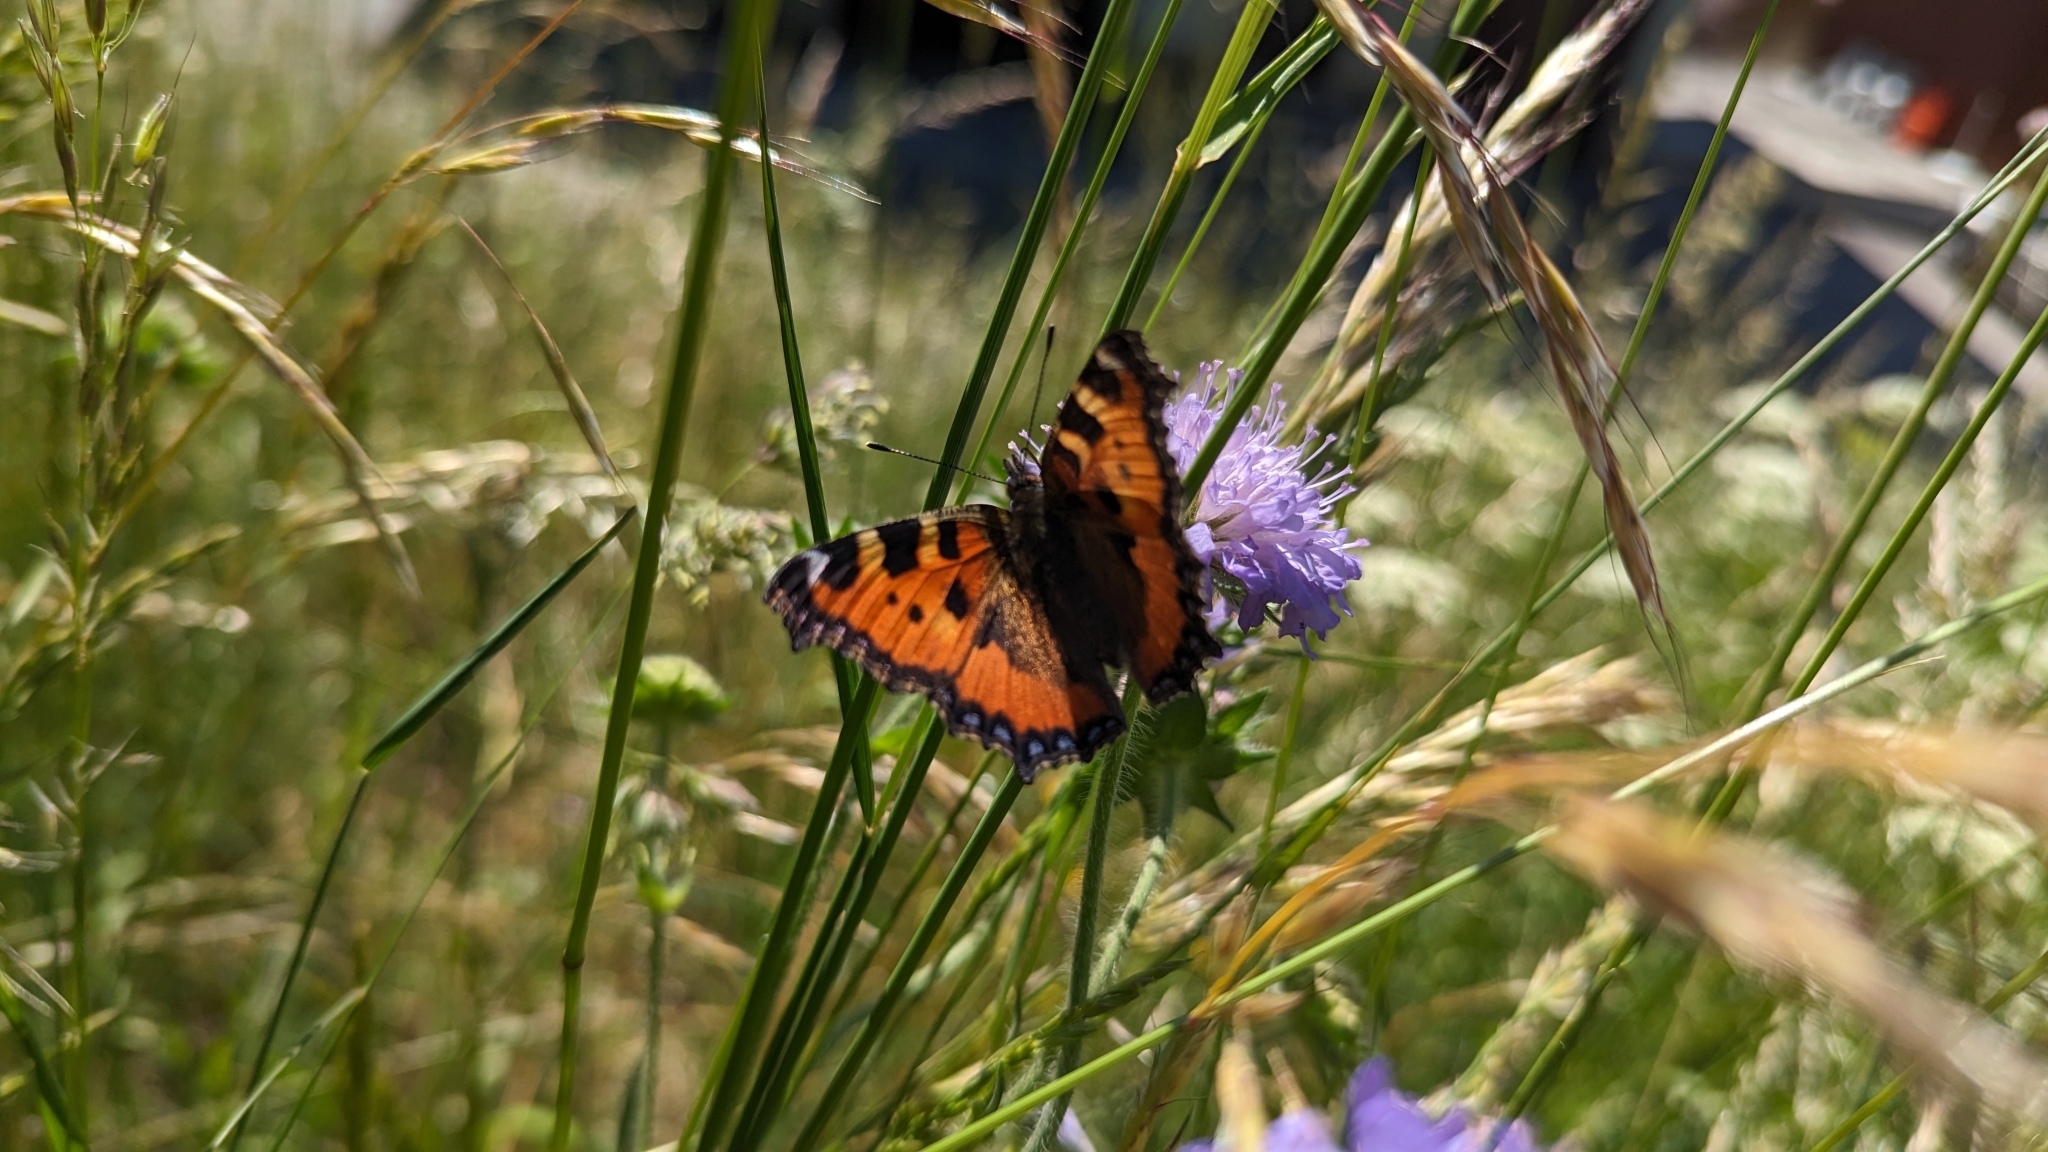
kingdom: Animalia
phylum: Arthropoda
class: Insecta
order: Lepidoptera
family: Nymphalidae
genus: Aglais
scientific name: Aglais urticae
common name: Small tortoiseshell
